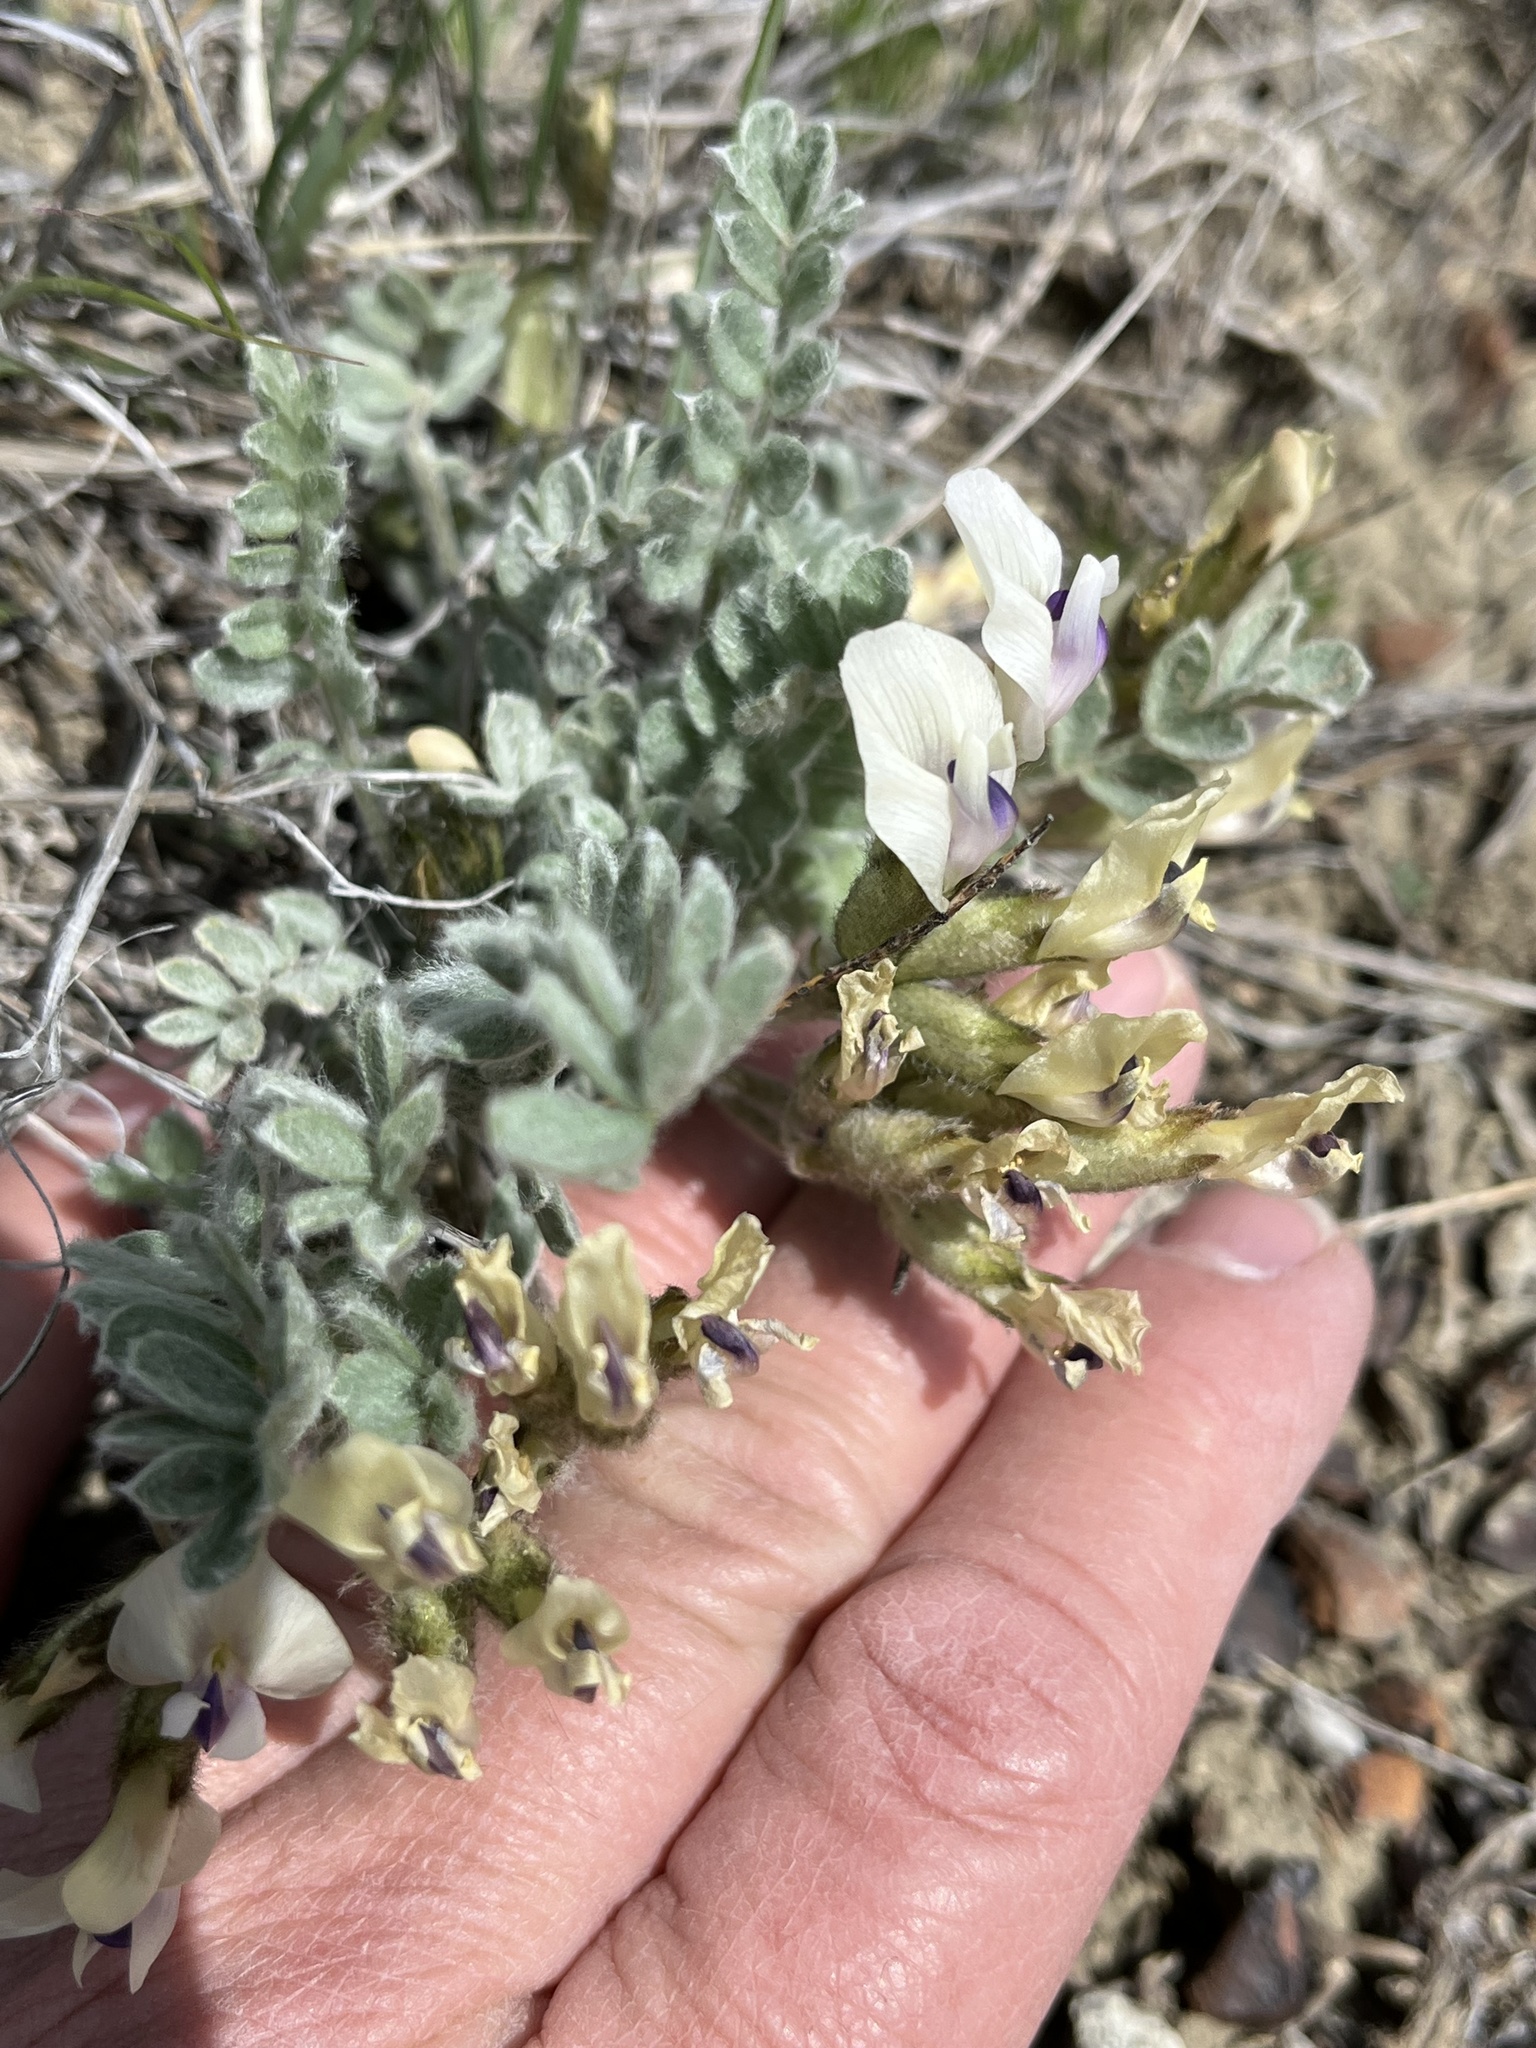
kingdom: Plantae
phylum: Tracheophyta
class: Magnoliopsida
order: Fabales
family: Fabaceae
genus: Astragalus
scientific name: Astragalus purshii
